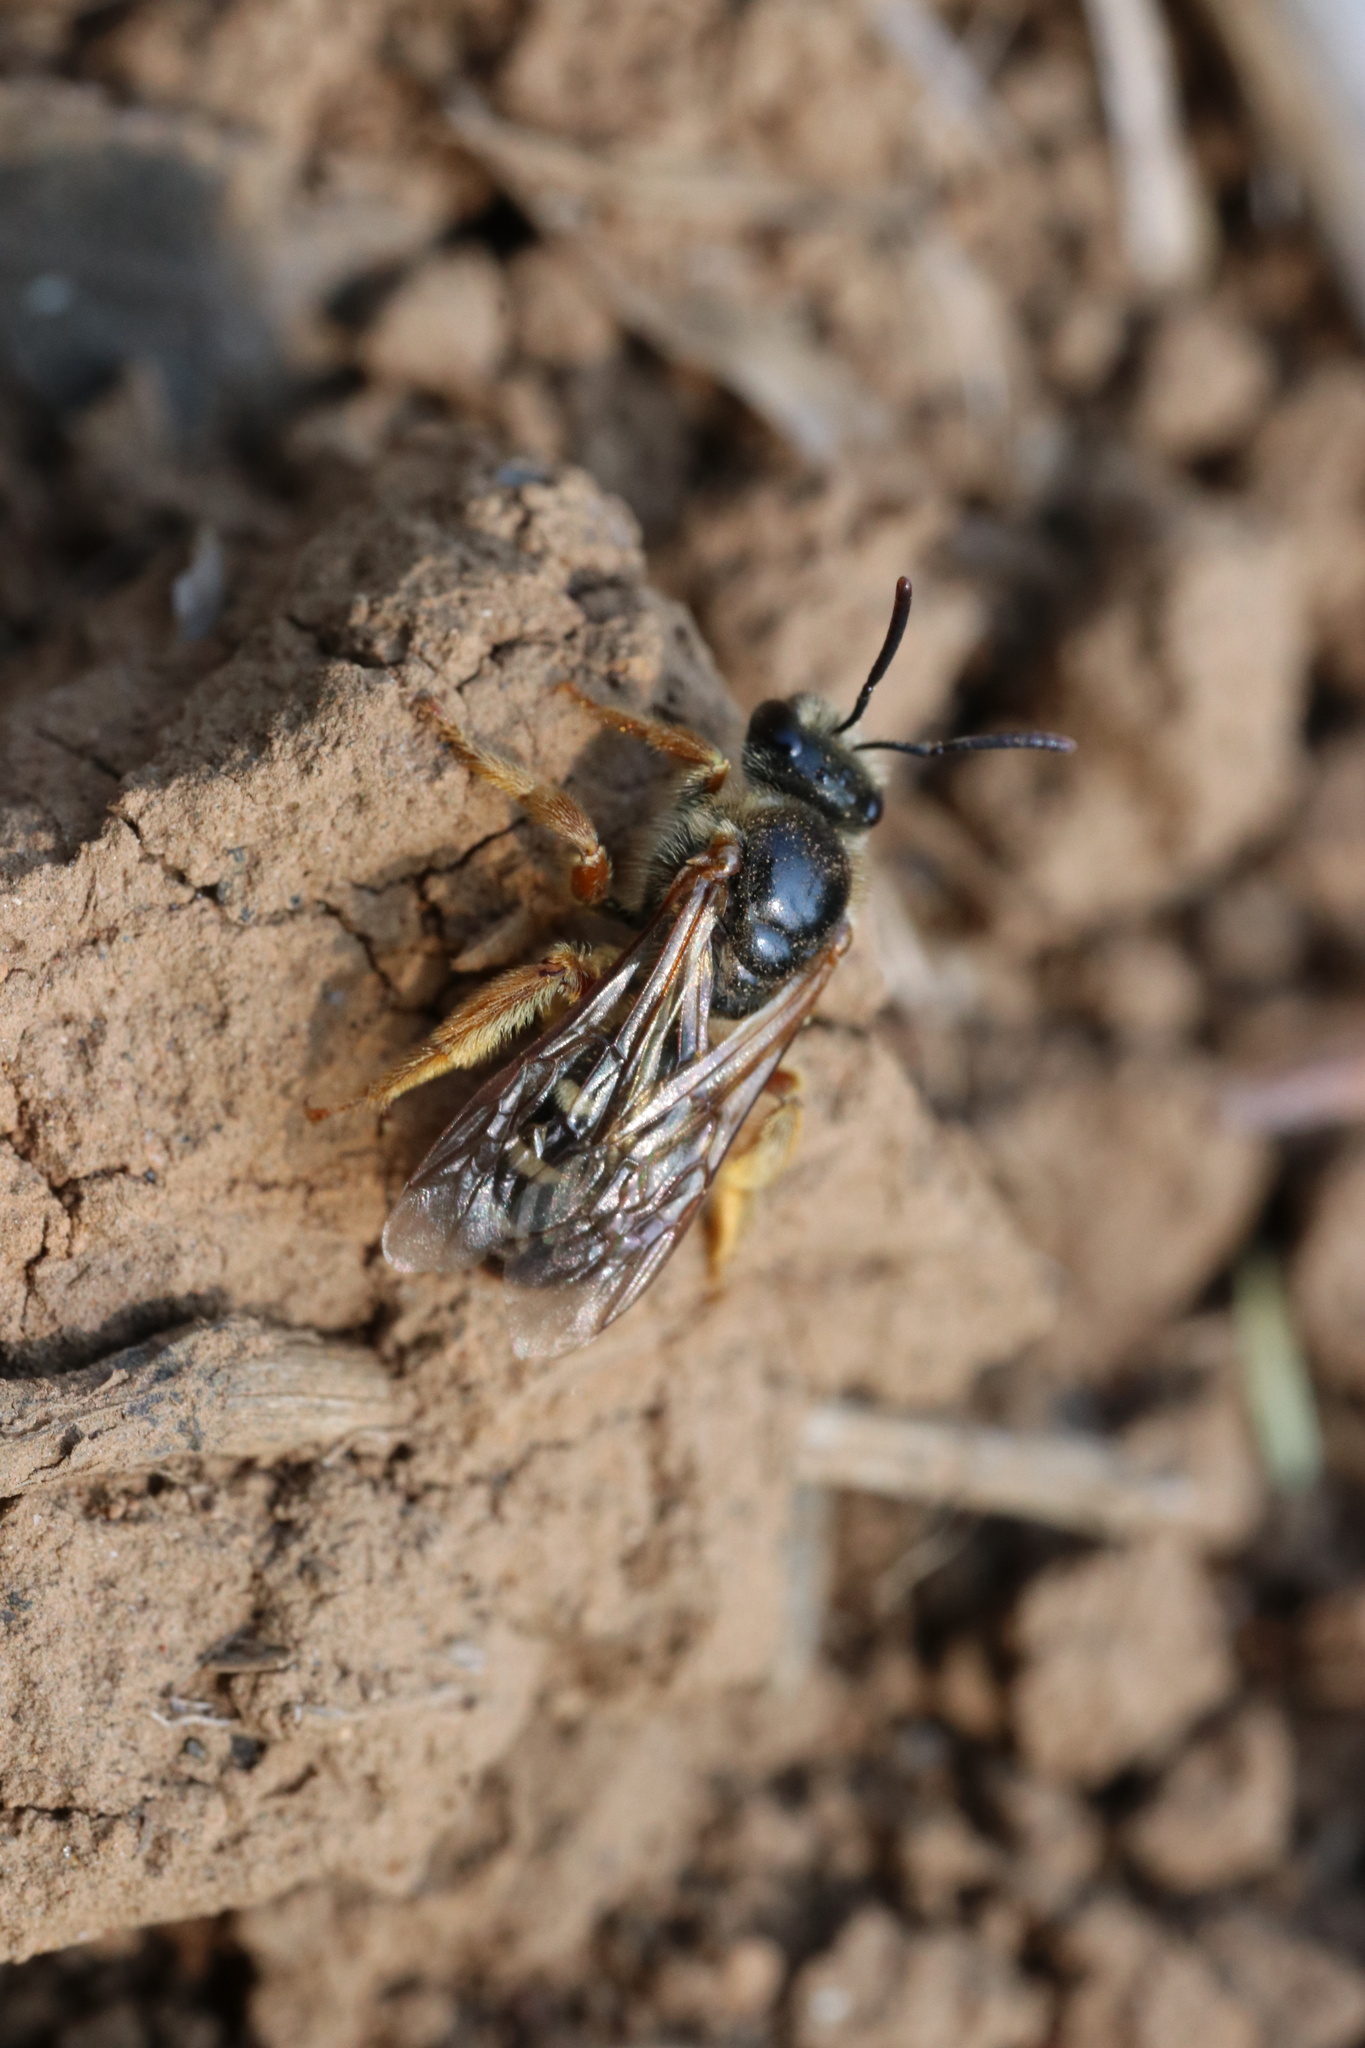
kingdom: Animalia
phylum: Arthropoda
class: Insecta
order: Hymenoptera
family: Halictidae
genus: Ruizantheda
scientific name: Ruizantheda proxima
